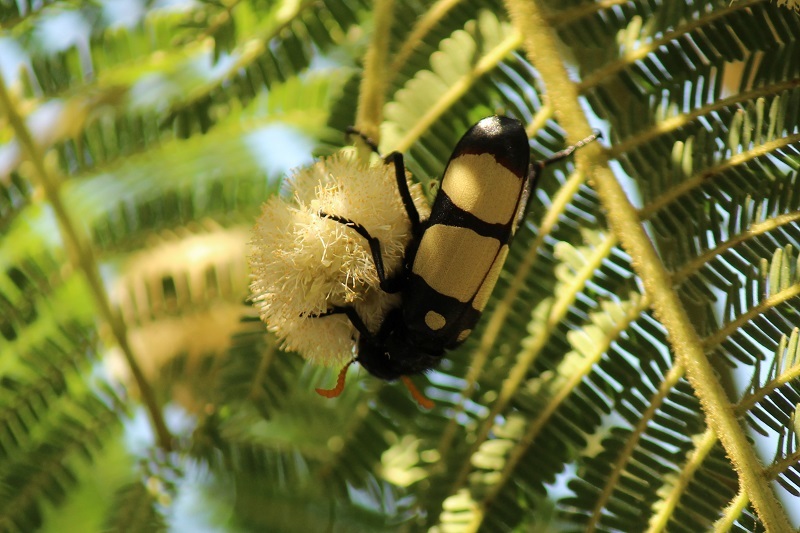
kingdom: Animalia
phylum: Arthropoda
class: Insecta
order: Coleoptera
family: Meloidae
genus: Hycleus
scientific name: Hycleus
